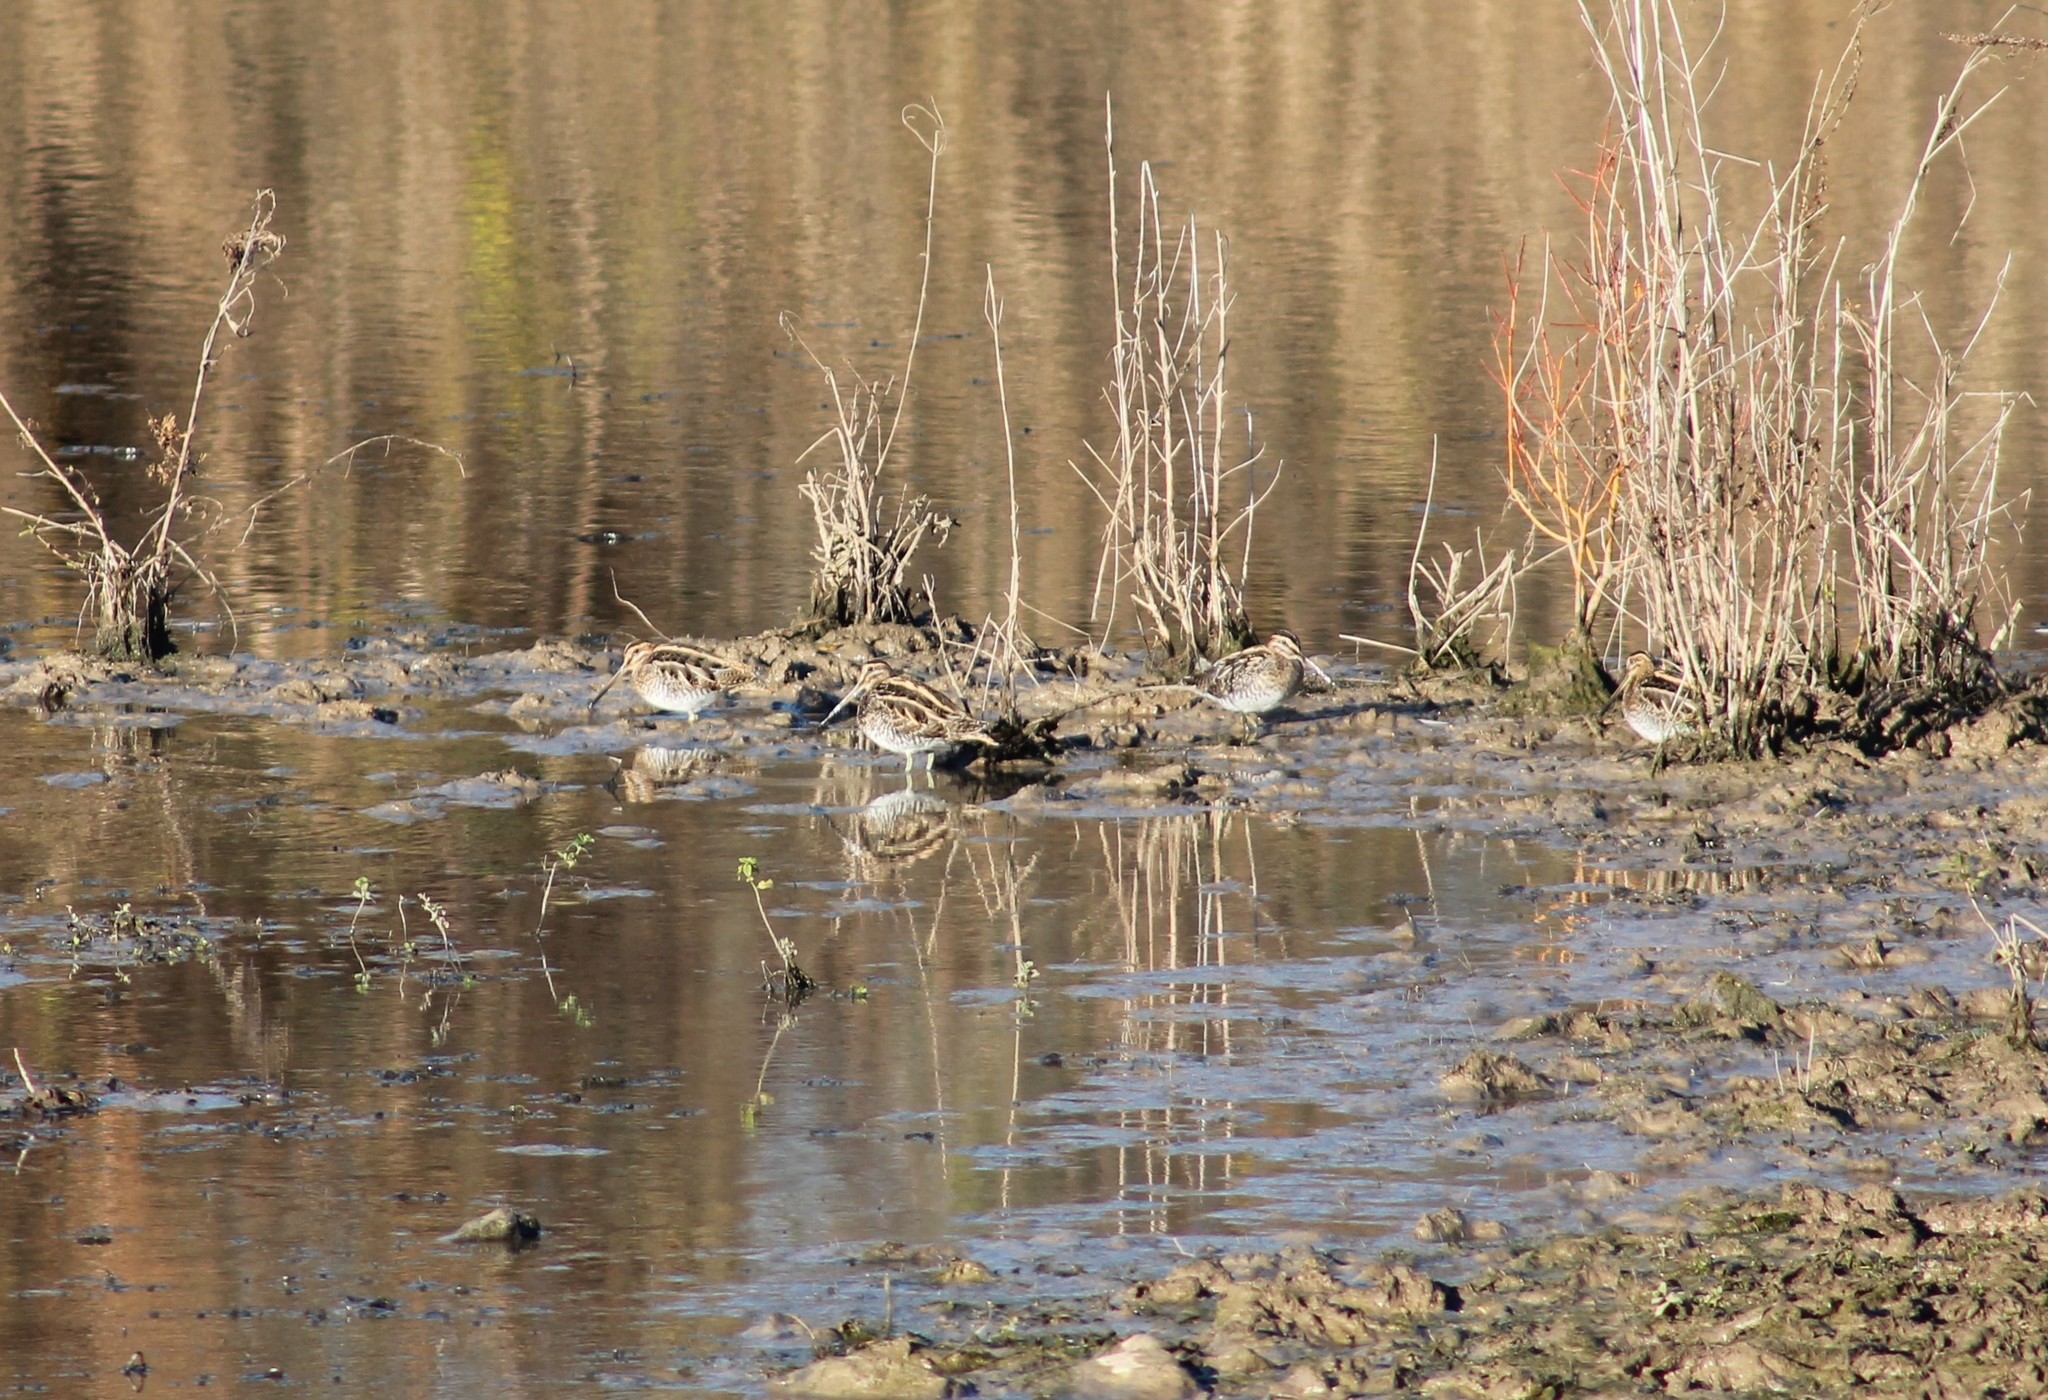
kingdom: Animalia
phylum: Chordata
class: Aves
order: Charadriiformes
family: Scolopacidae
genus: Gallinago
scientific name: Gallinago gallinago
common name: Common snipe
